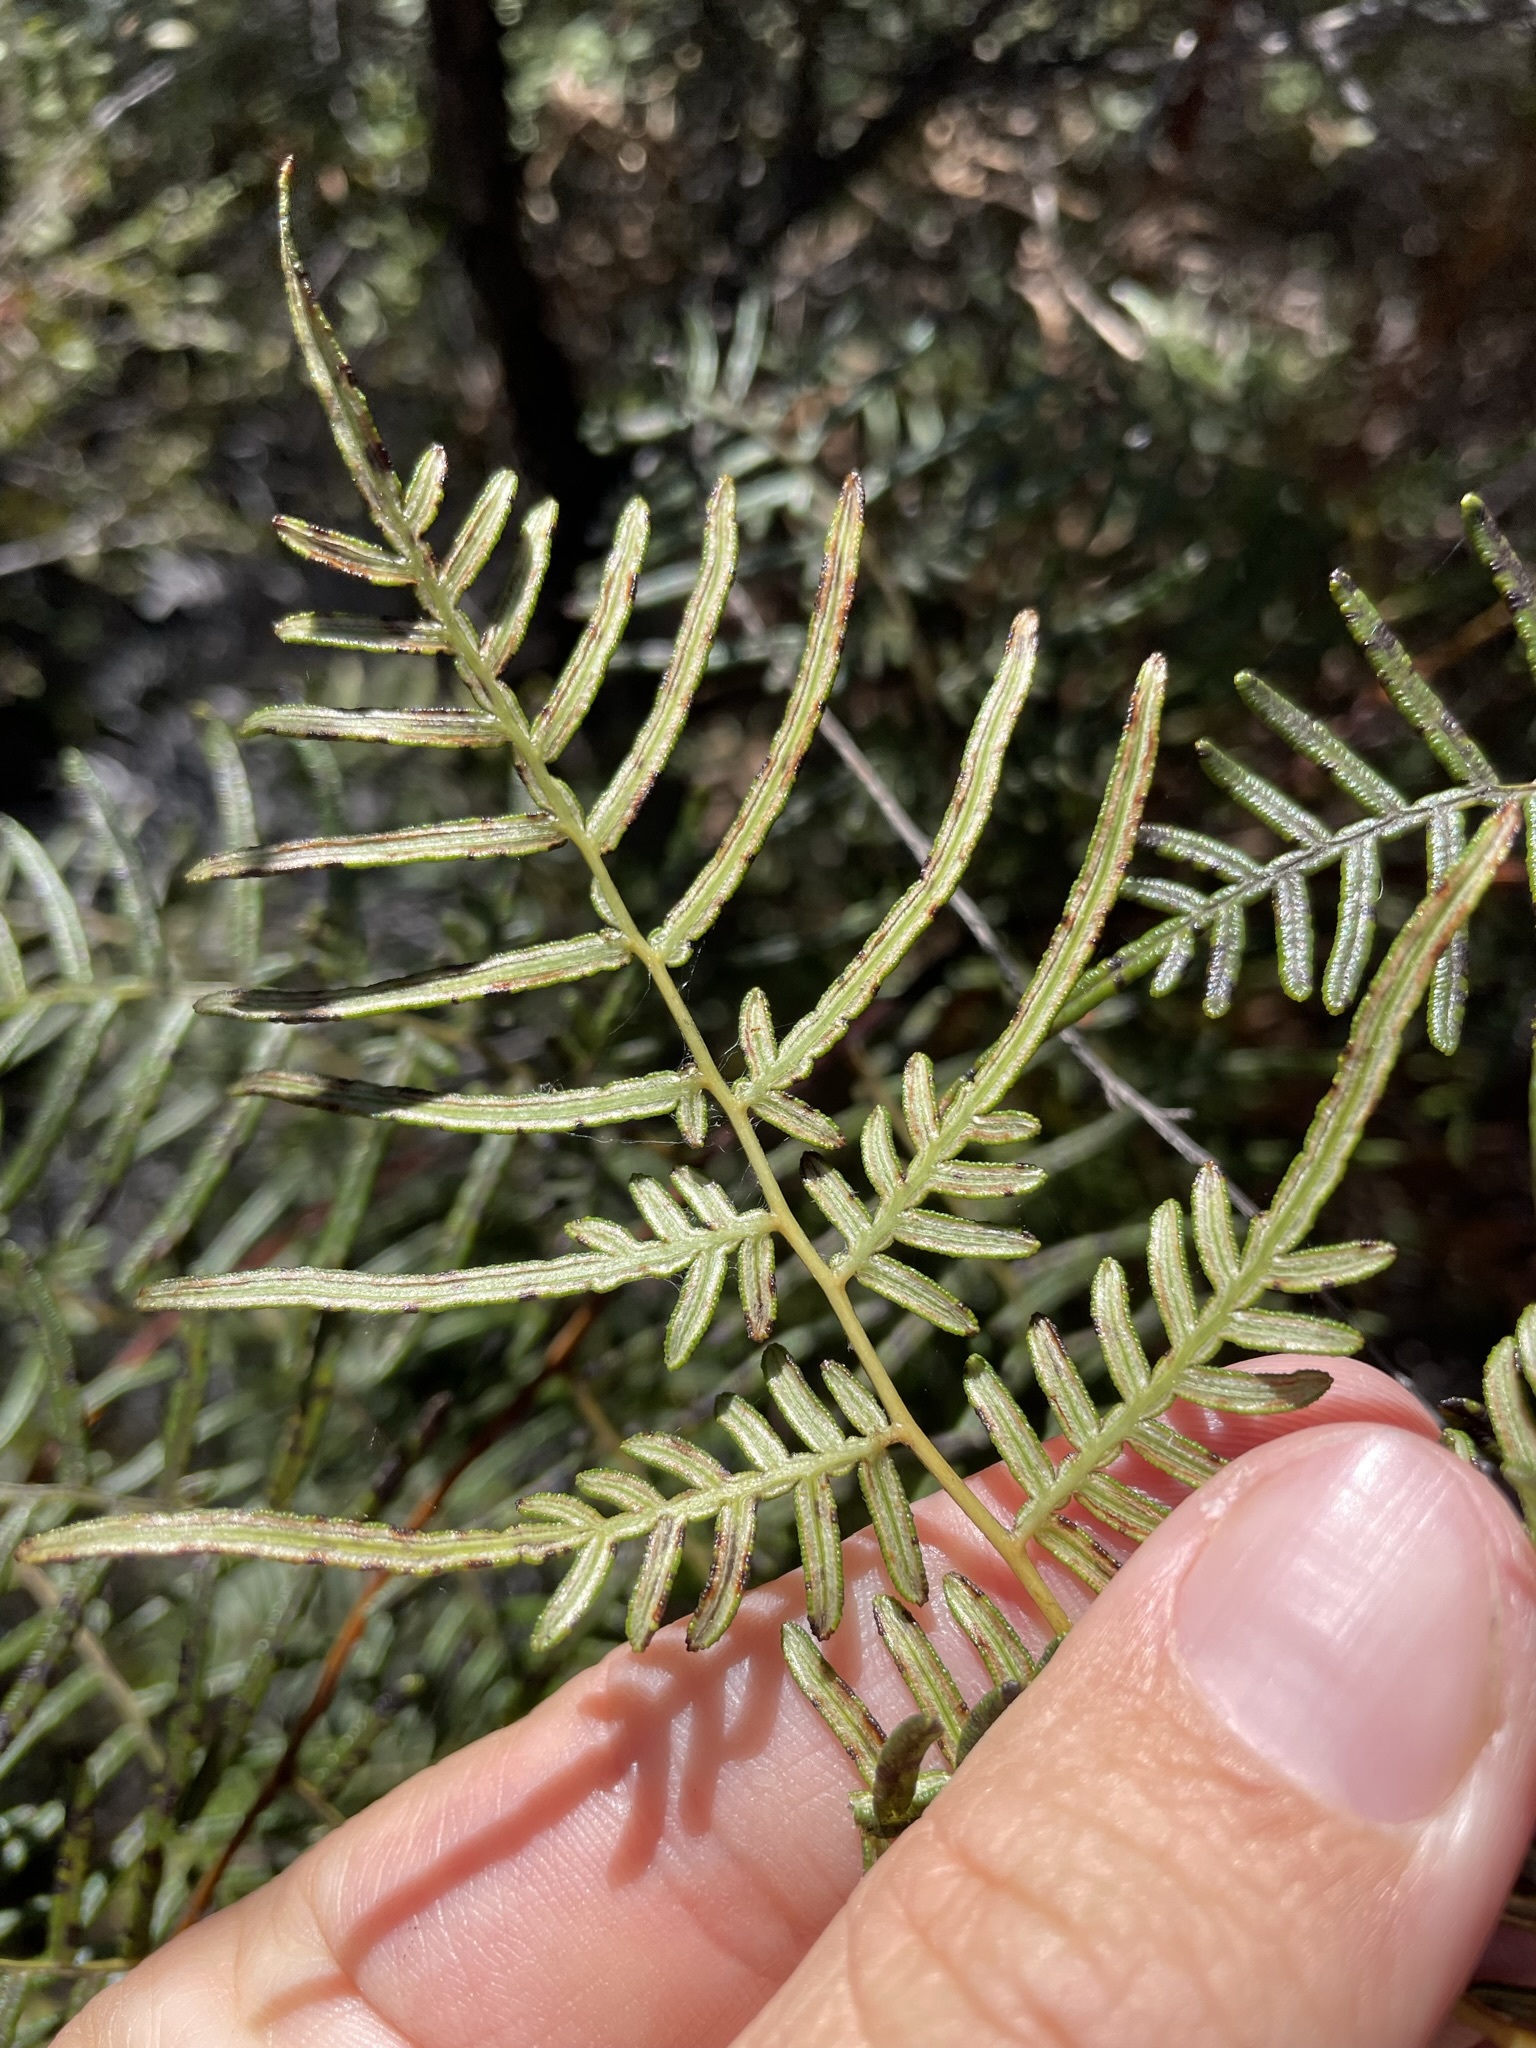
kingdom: Plantae
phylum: Tracheophyta
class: Polypodiopsida
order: Polypodiales
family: Dennstaedtiaceae
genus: Pteridium
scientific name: Pteridium esculentum
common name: Bracken fern
